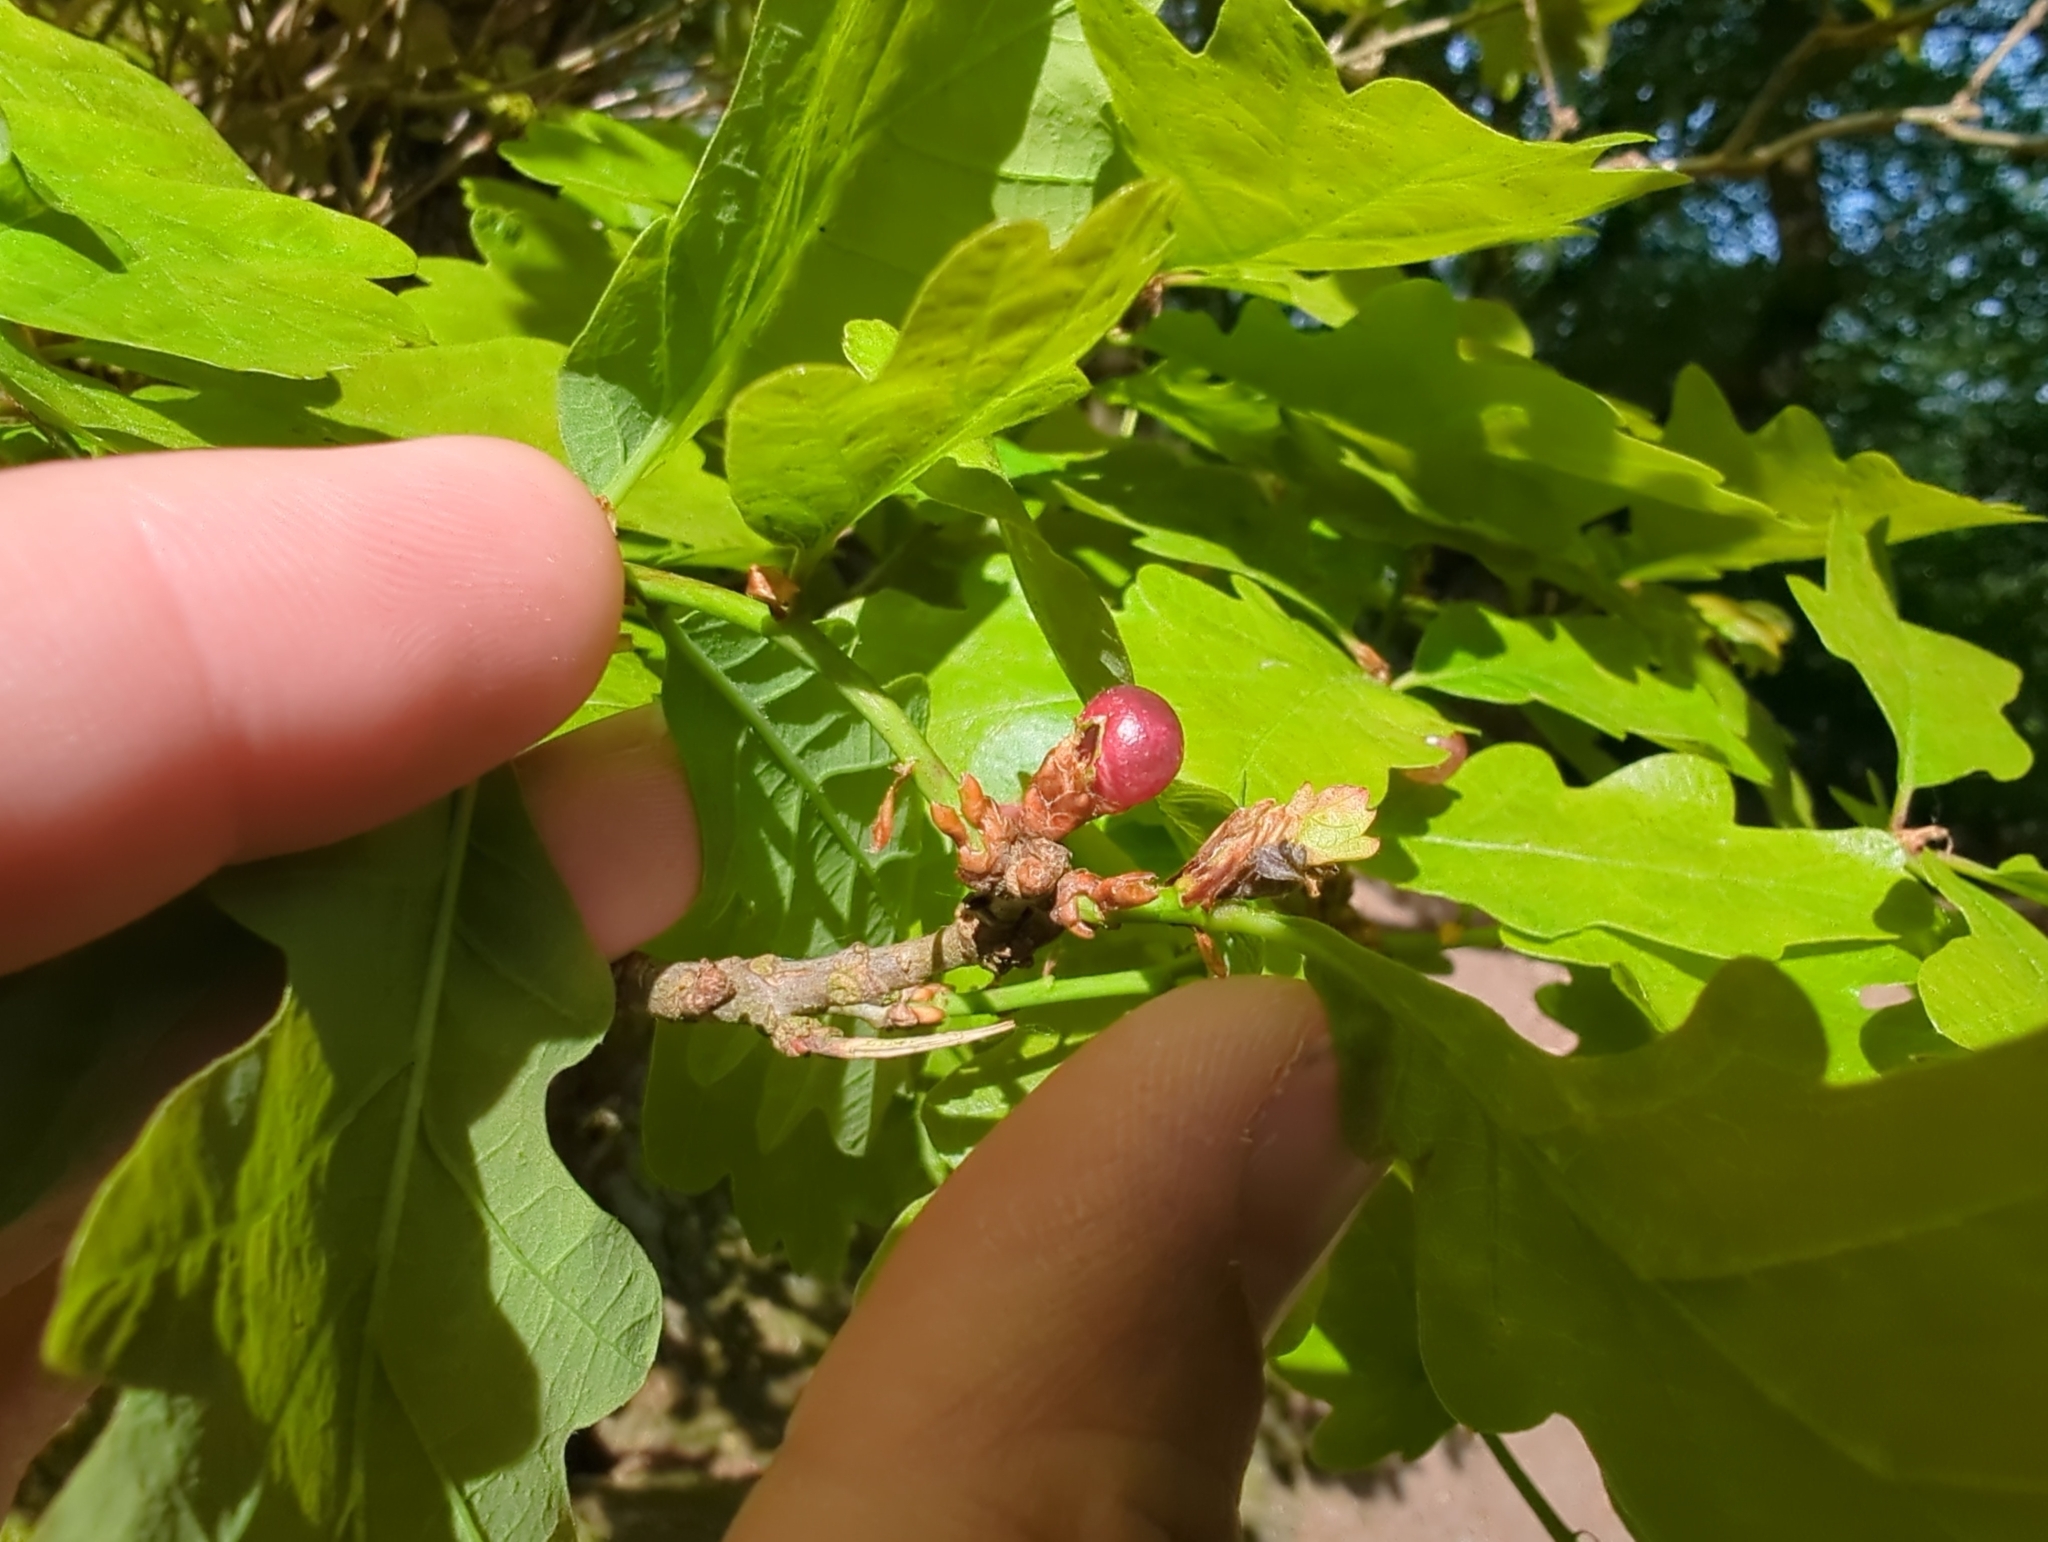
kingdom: Animalia
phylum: Arthropoda
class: Insecta
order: Hymenoptera
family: Cynipidae
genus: Neuroterus
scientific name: Neuroterus quercusbaccarum
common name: Common spangle gall
